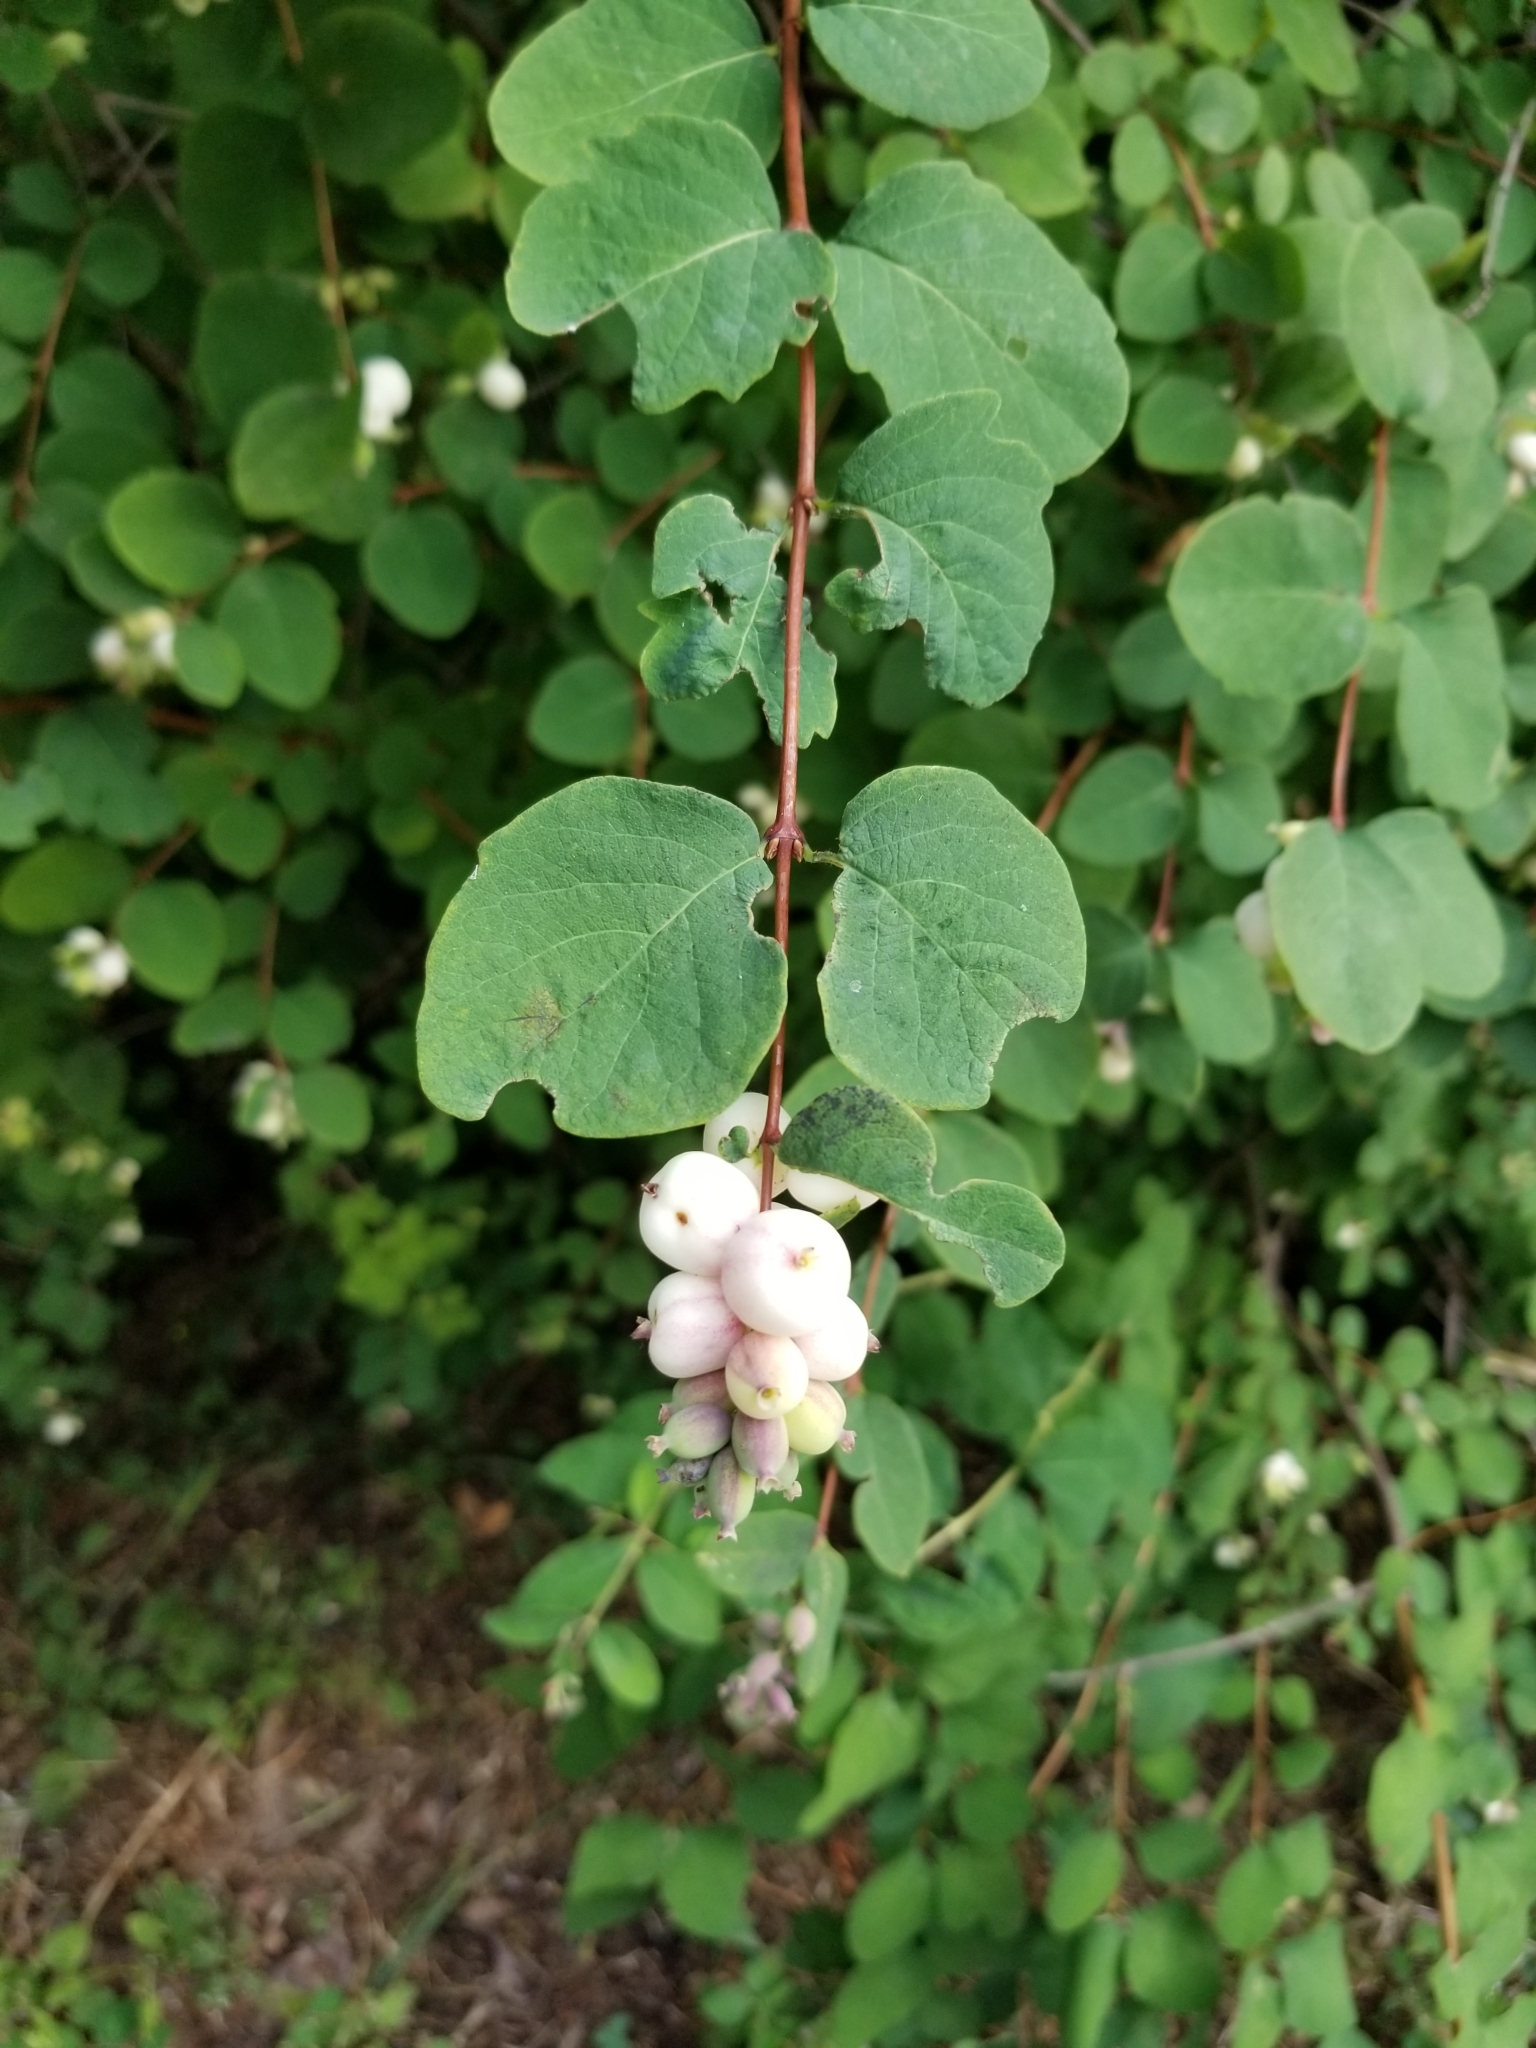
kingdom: Plantae
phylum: Tracheophyta
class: Magnoliopsida
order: Dipsacales
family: Caprifoliaceae
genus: Symphoricarpos
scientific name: Symphoricarpos albus
